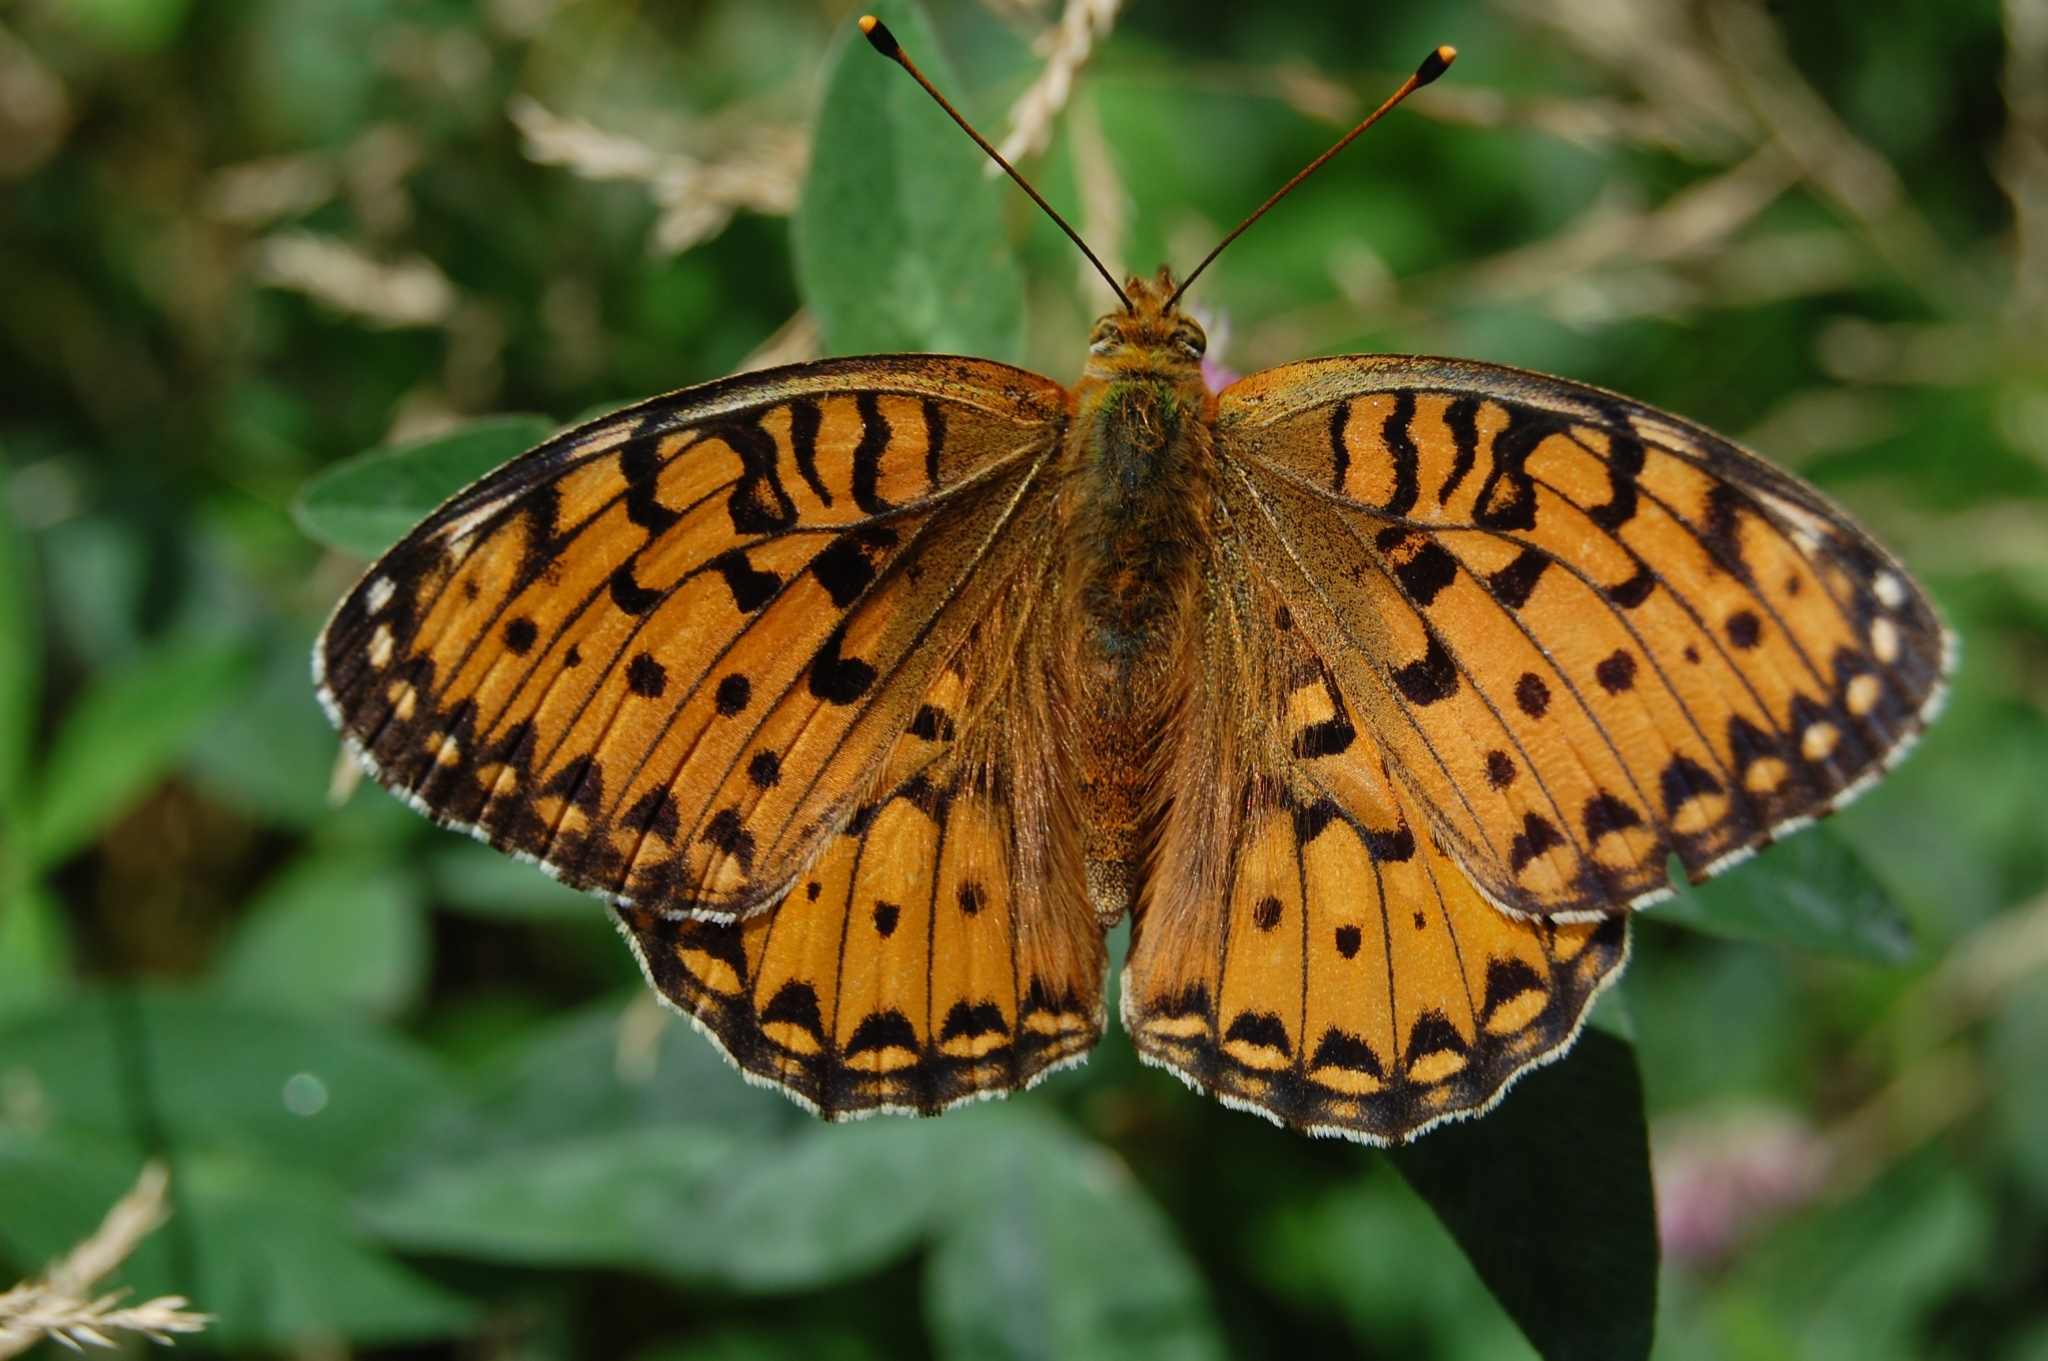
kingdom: Animalia
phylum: Arthropoda
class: Insecta
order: Lepidoptera
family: Nymphalidae
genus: Speyeria
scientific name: Speyeria aglaja
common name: Dark green fritillary
